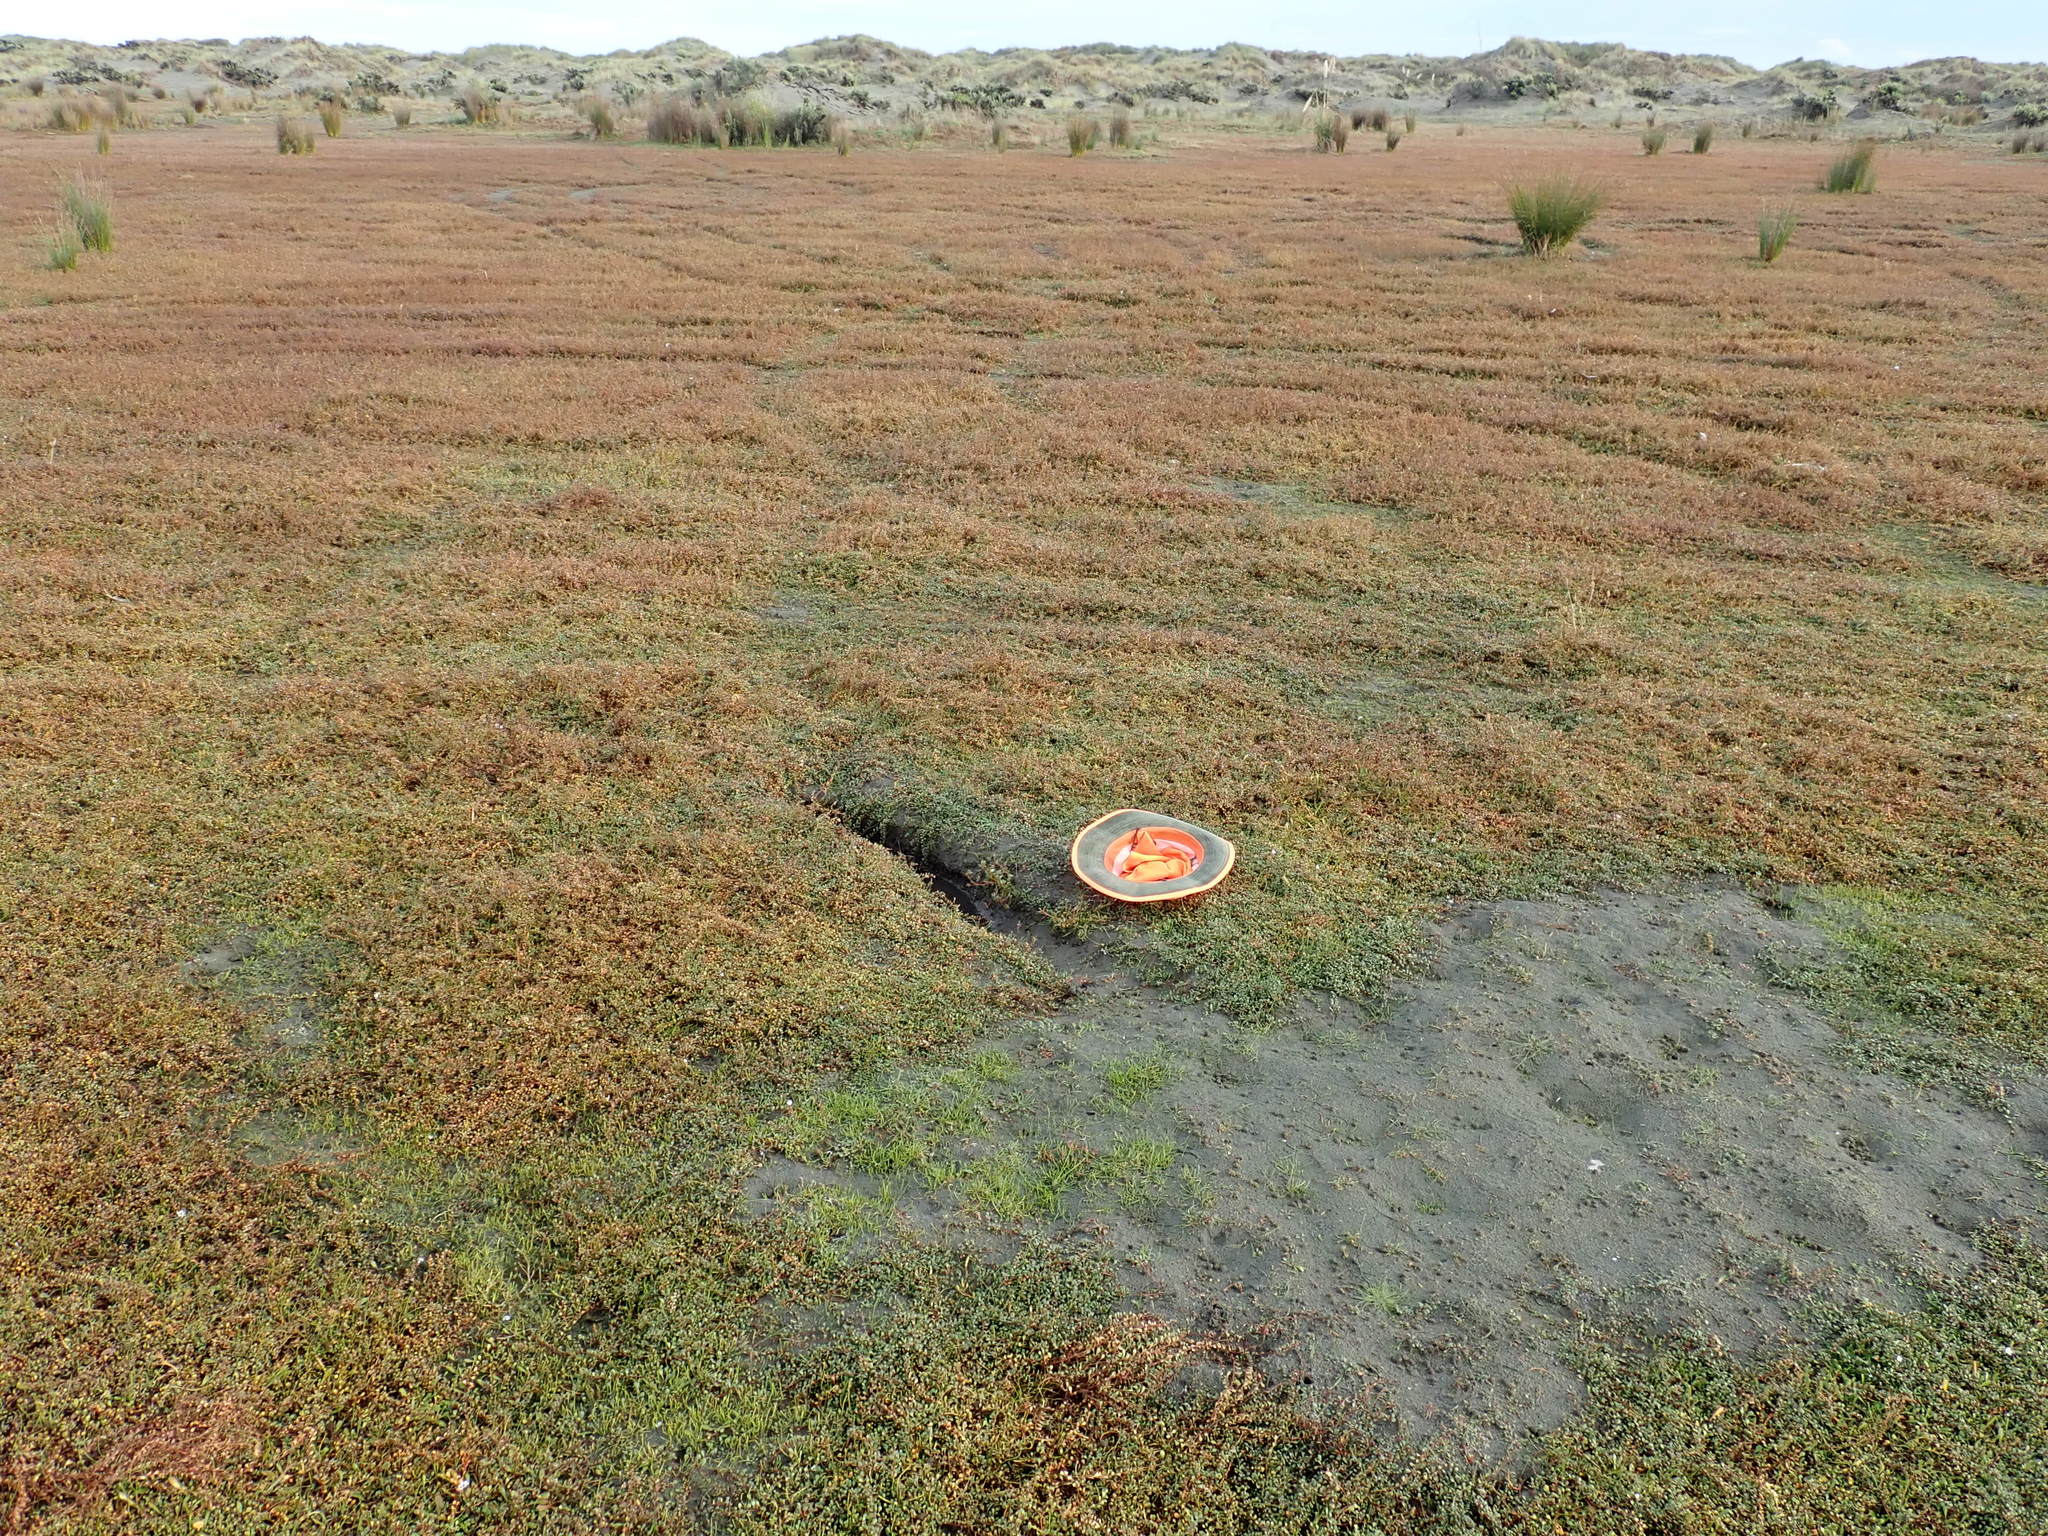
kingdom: Plantae
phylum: Tracheophyta
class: Magnoliopsida
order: Caryophyllales
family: Amaranthaceae
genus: Salicornia
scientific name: Salicornia quinqueflora
